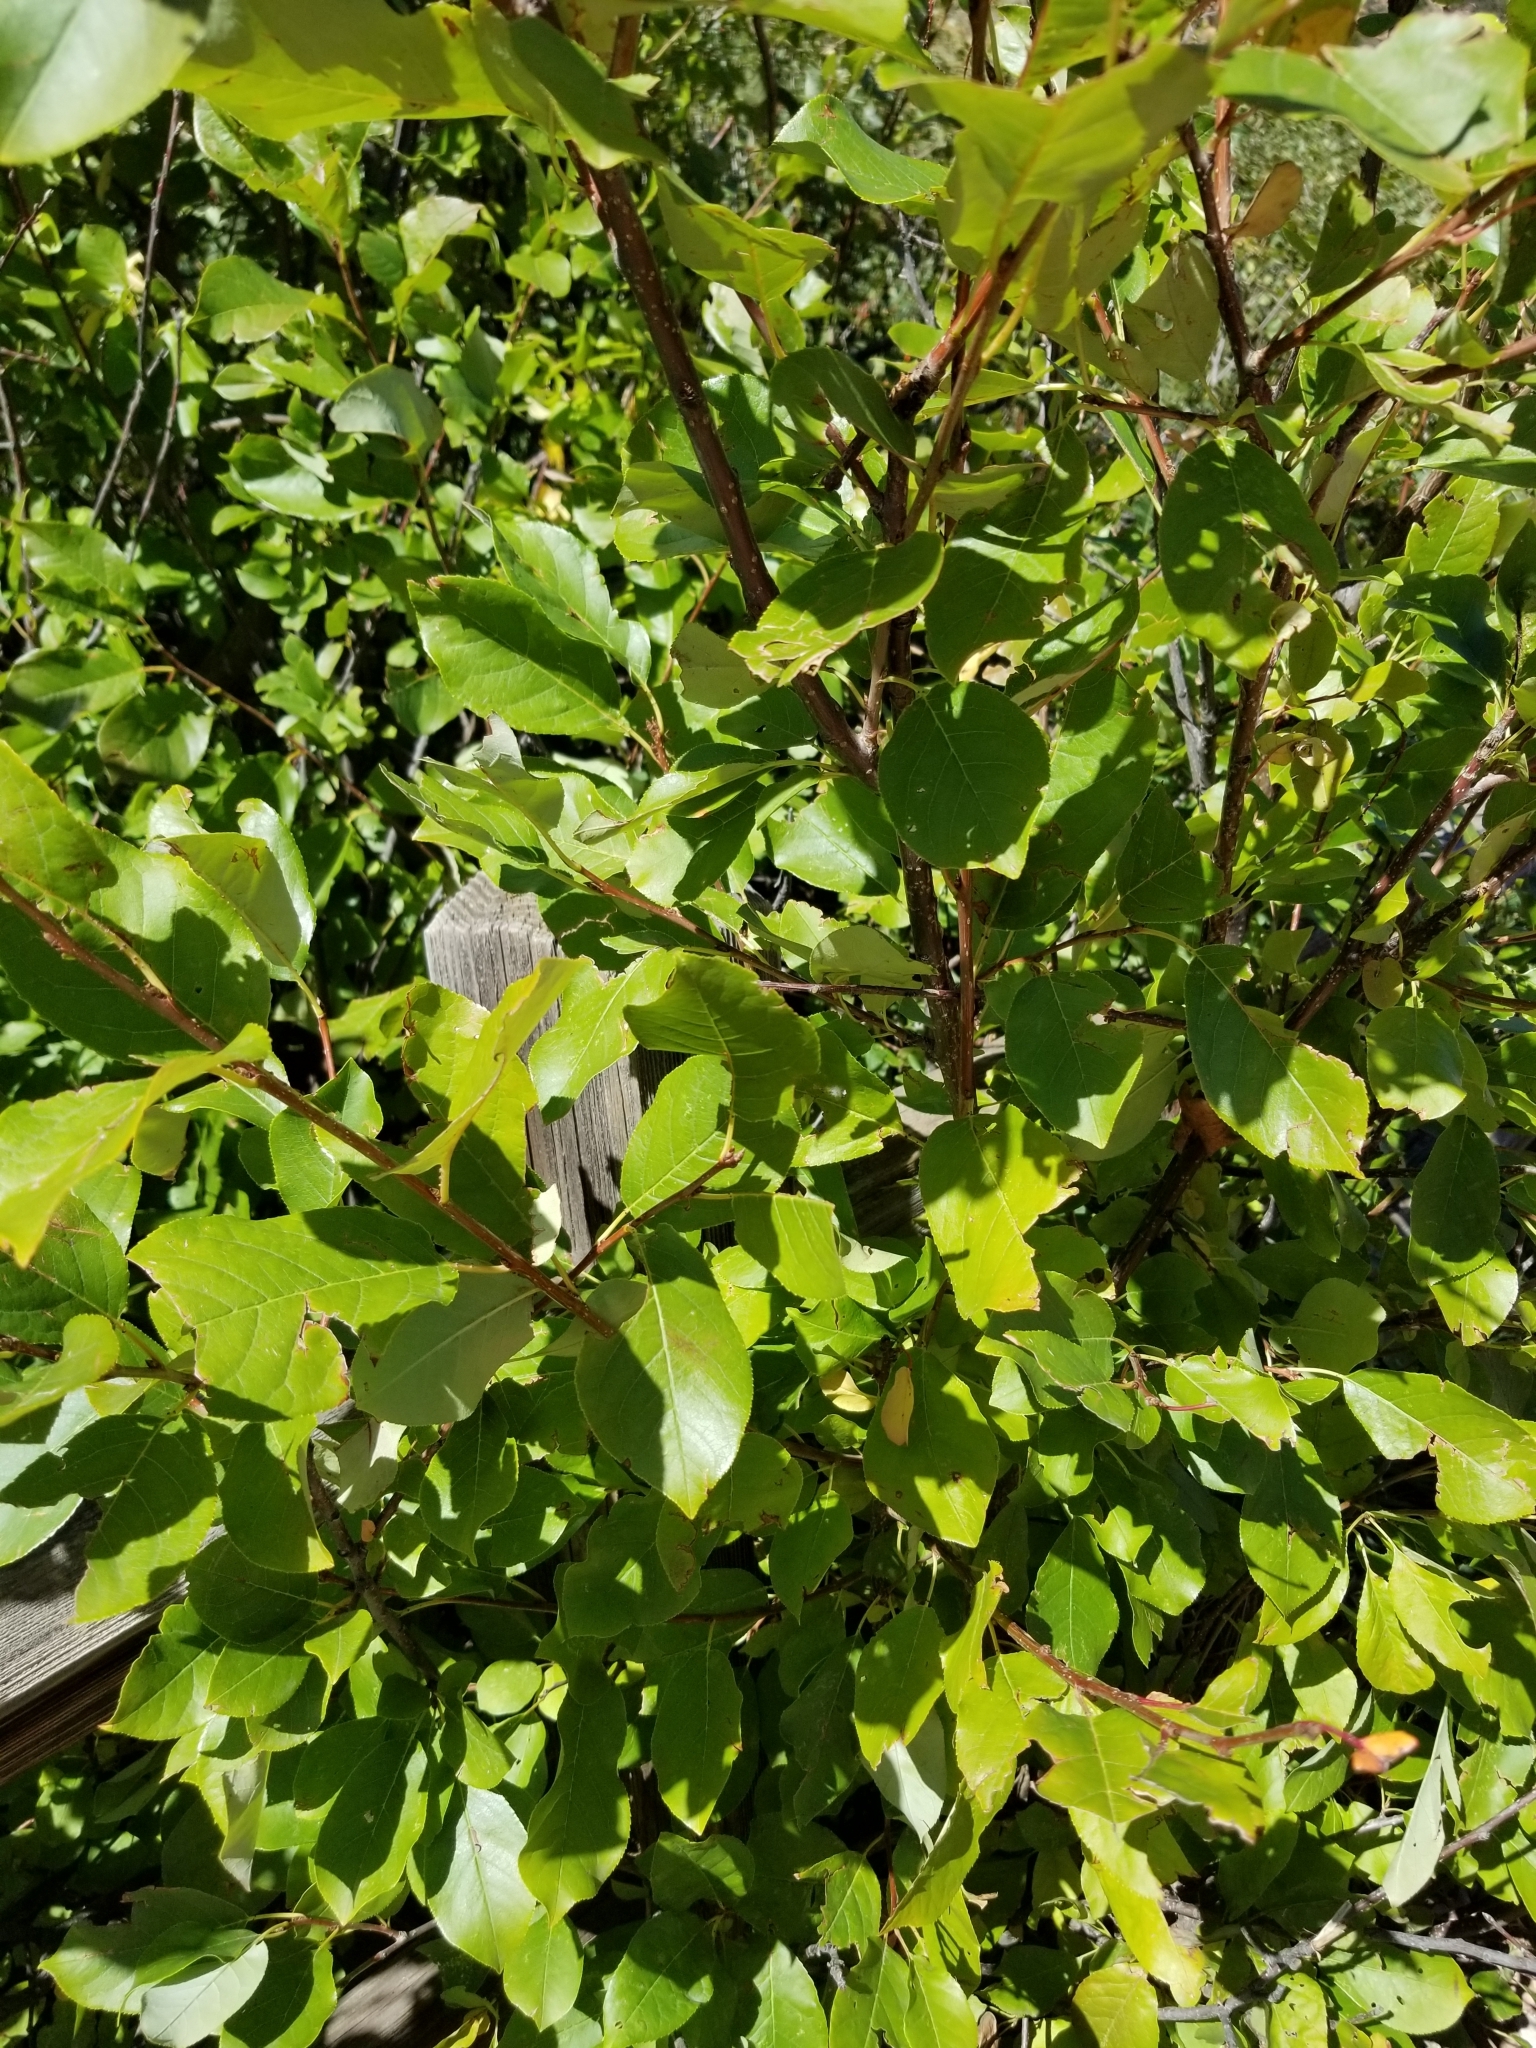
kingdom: Plantae
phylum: Tracheophyta
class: Magnoliopsida
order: Rosales
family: Rosaceae
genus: Prunus
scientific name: Prunus virginiana
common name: Chokecherry
